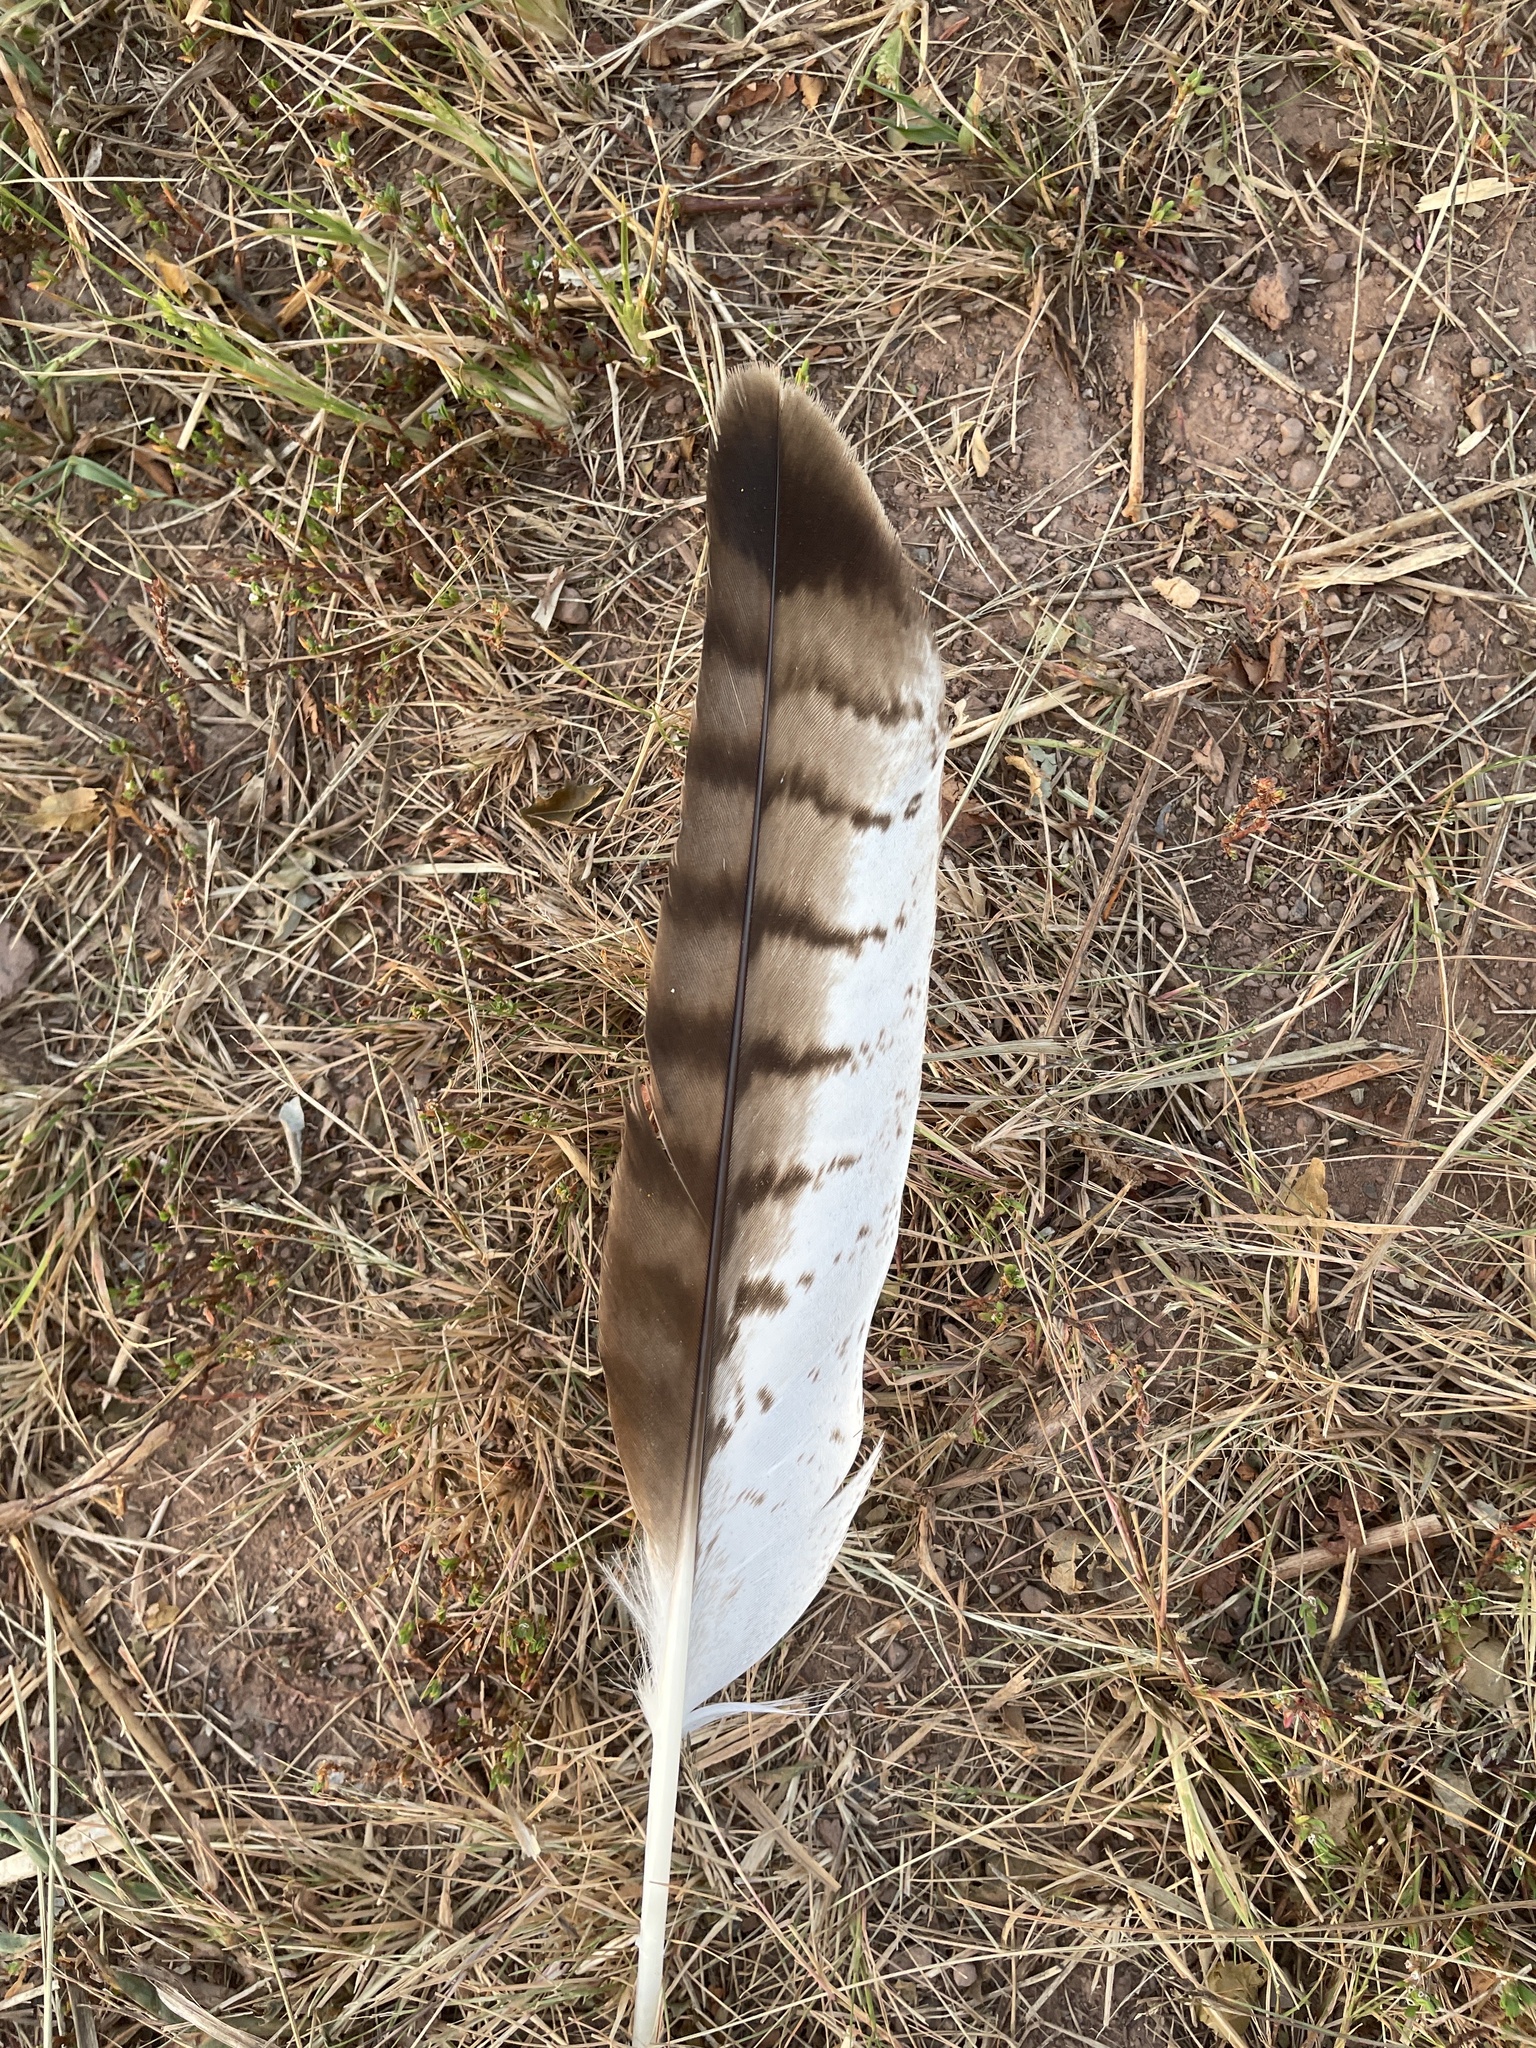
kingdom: Animalia
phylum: Chordata
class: Aves
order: Accipitriformes
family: Accipitridae
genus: Buteo
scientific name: Buteo jamaicensis
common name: Red-tailed hawk
